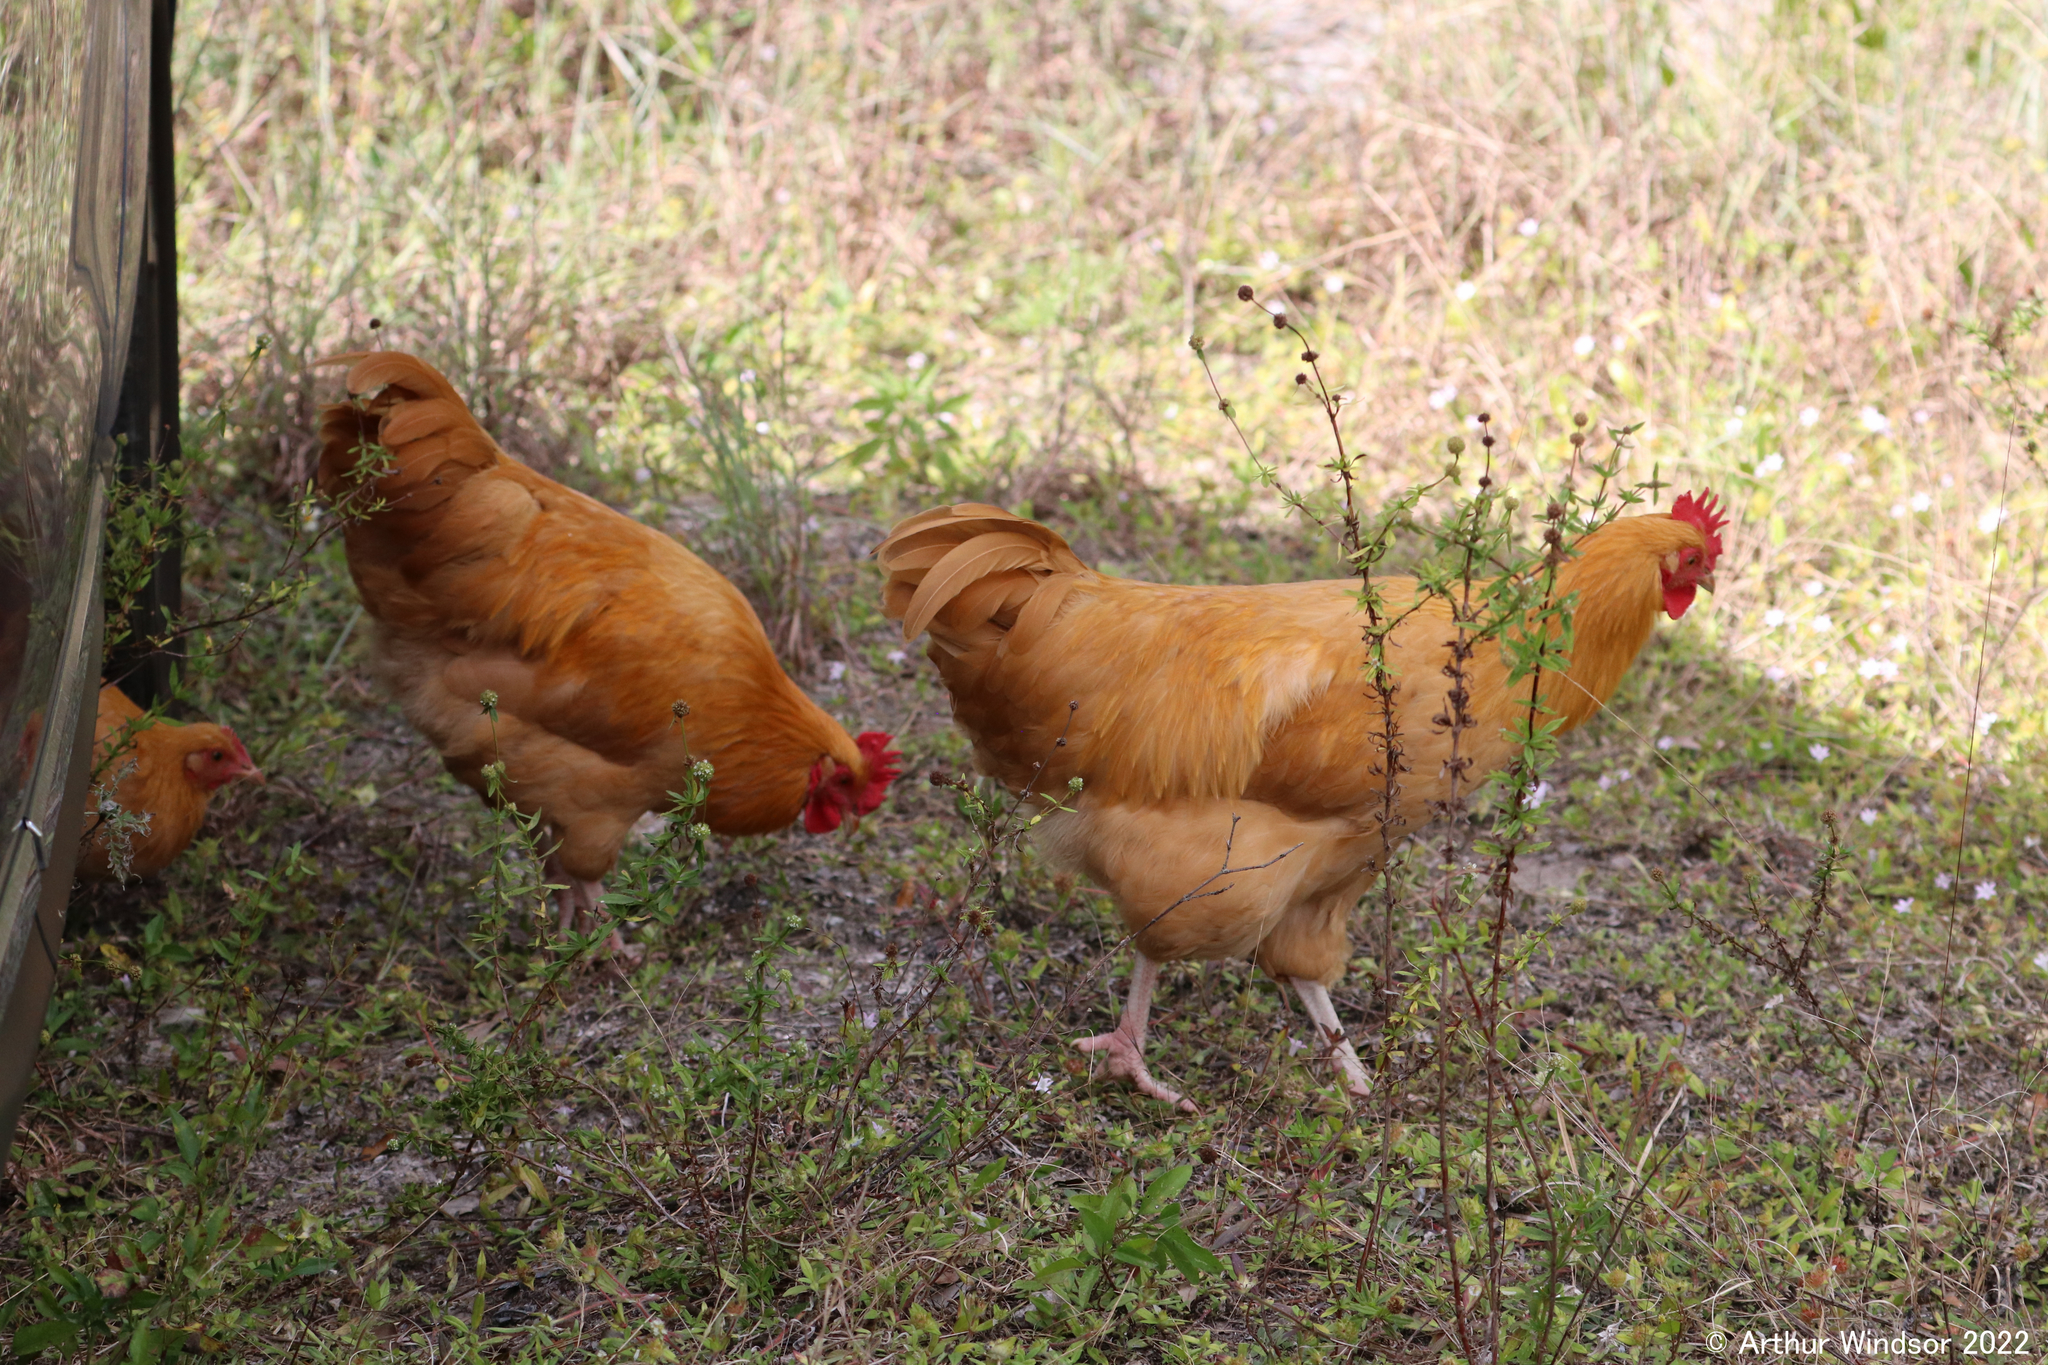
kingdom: Animalia
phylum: Chordata
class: Aves
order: Galliformes
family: Phasianidae
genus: Gallus
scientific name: Gallus gallus
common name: Red junglefowl
